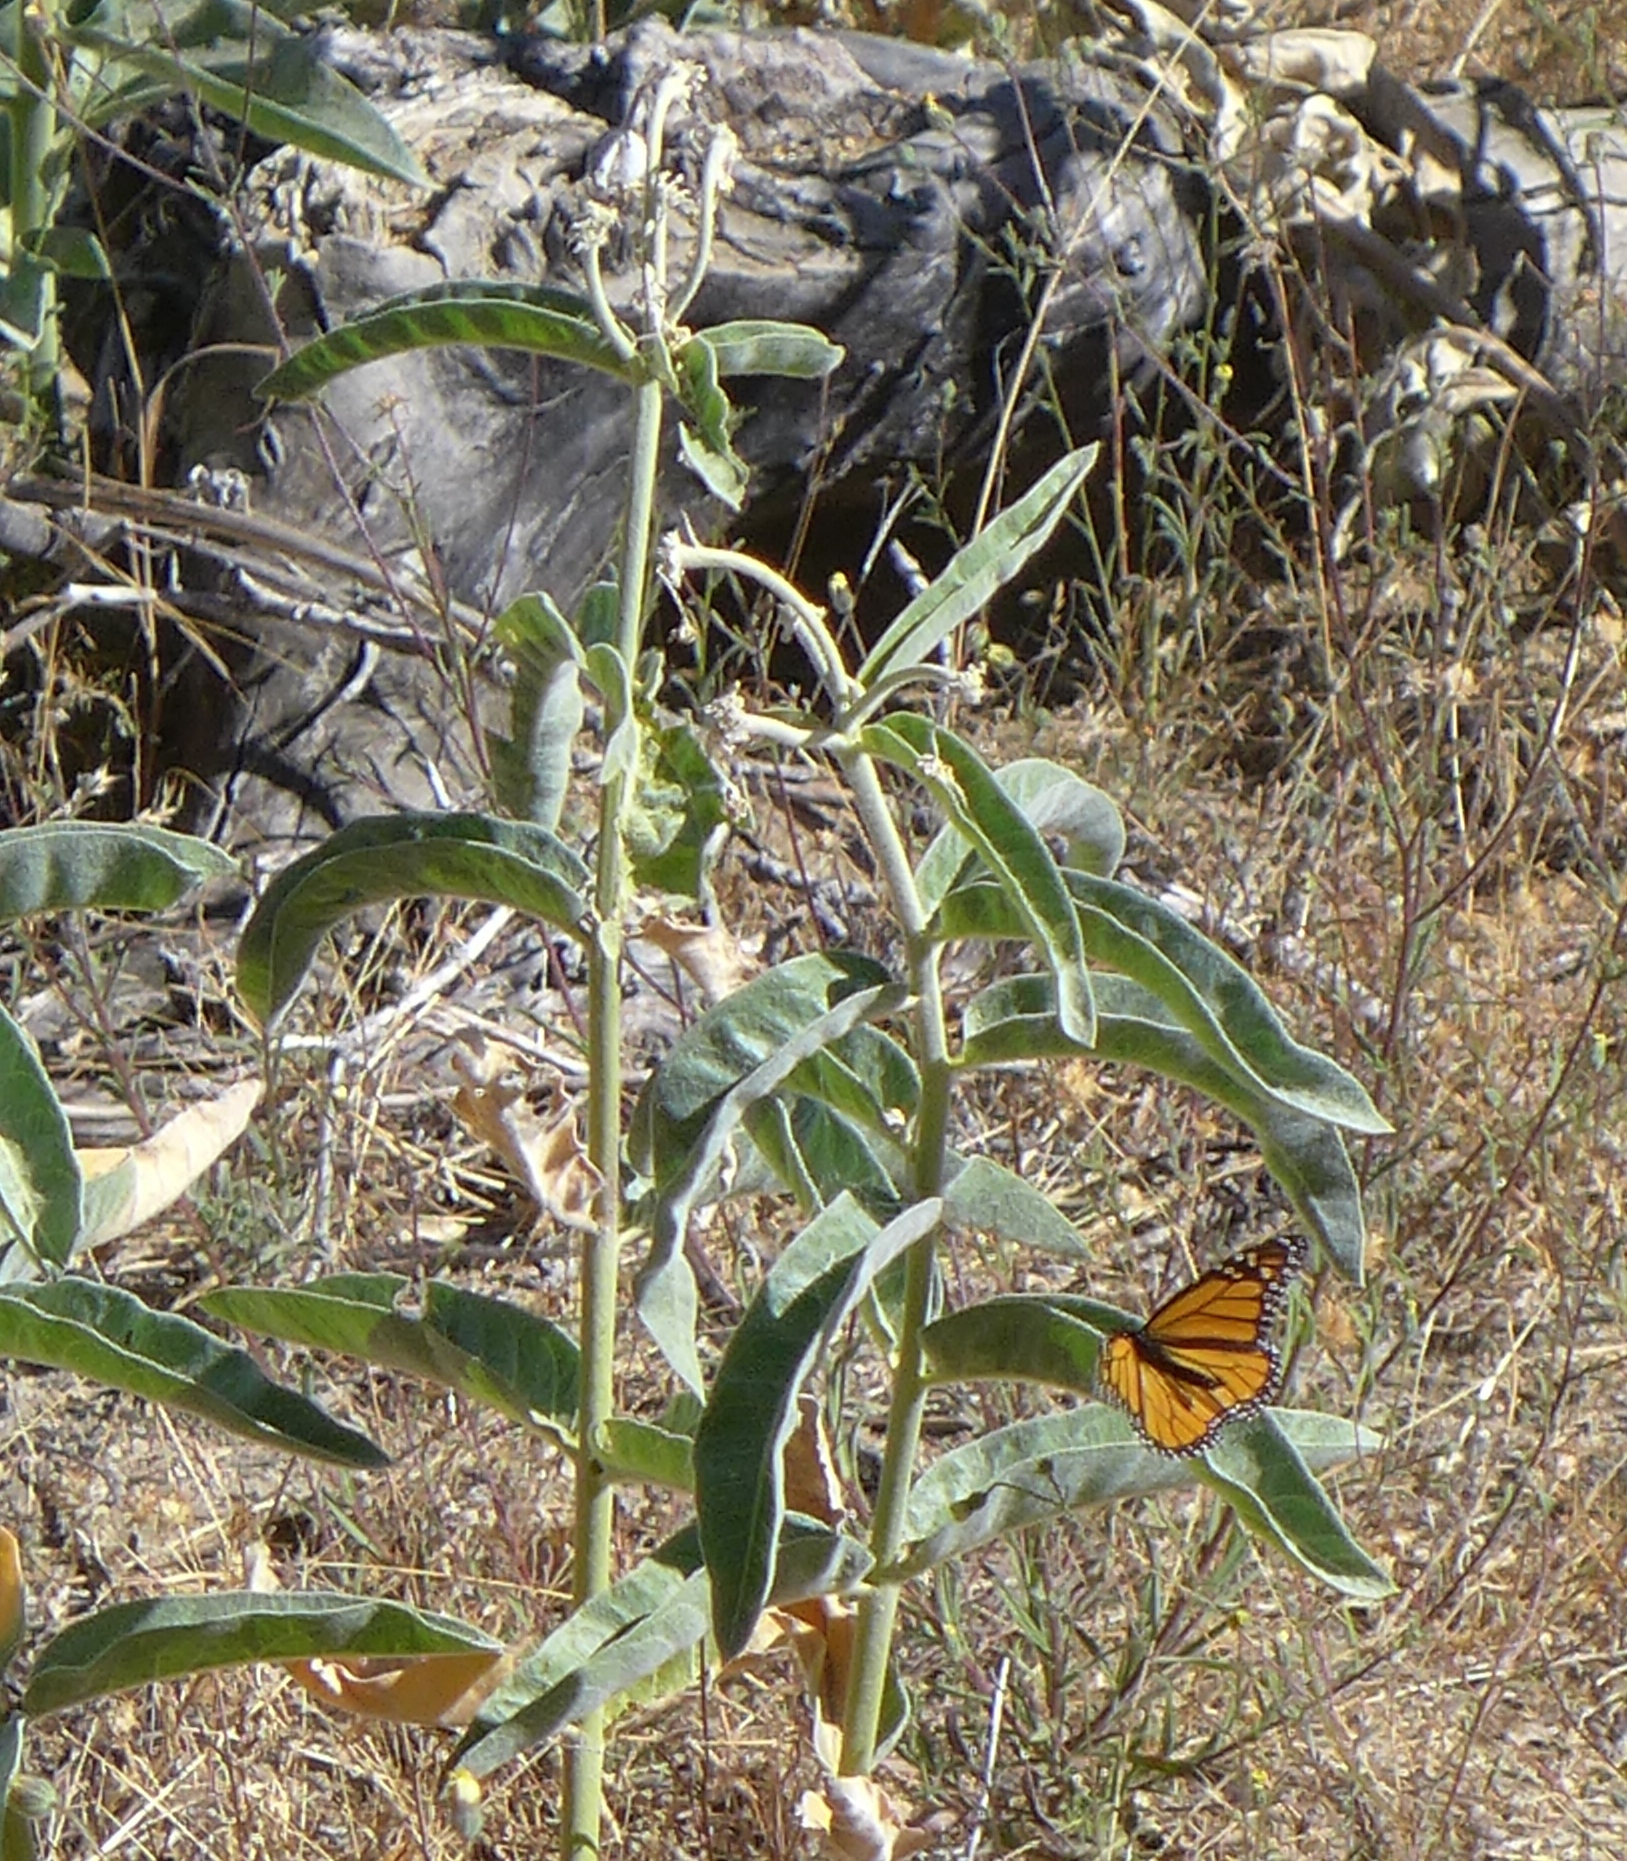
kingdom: Animalia
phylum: Arthropoda
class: Insecta
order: Lepidoptera
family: Nymphalidae
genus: Danaus
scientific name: Danaus plexippus
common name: Monarch
